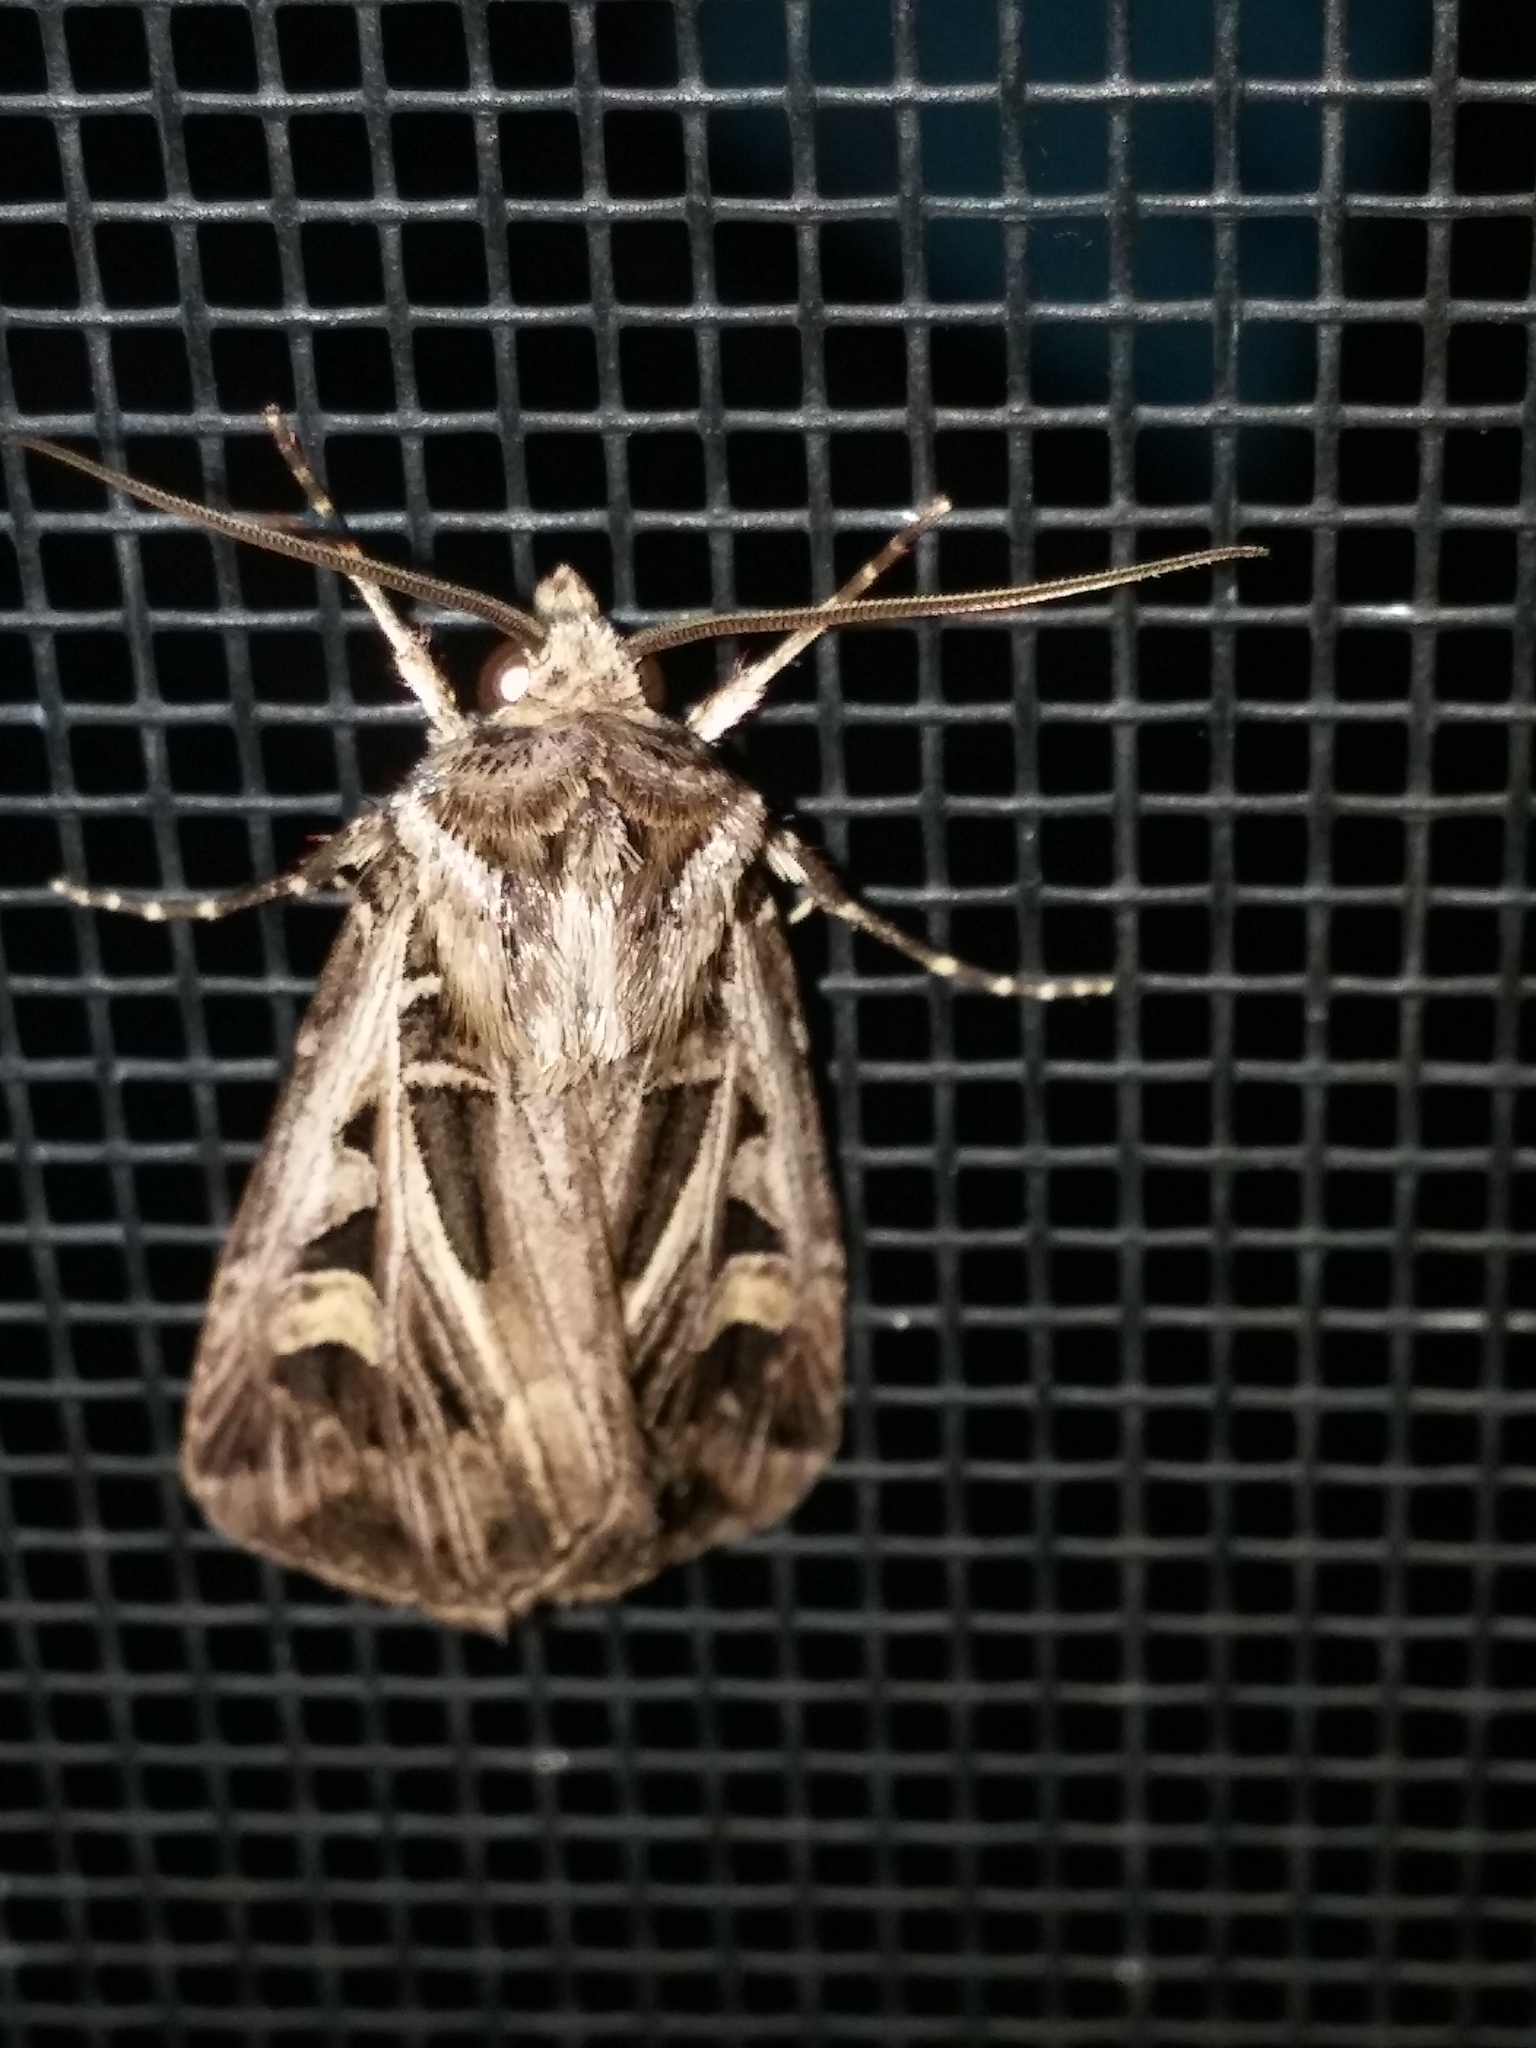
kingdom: Animalia
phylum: Arthropoda
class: Insecta
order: Lepidoptera
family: Noctuidae
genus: Feltia
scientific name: Feltia jaculifera
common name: Dingy cutworm moth
